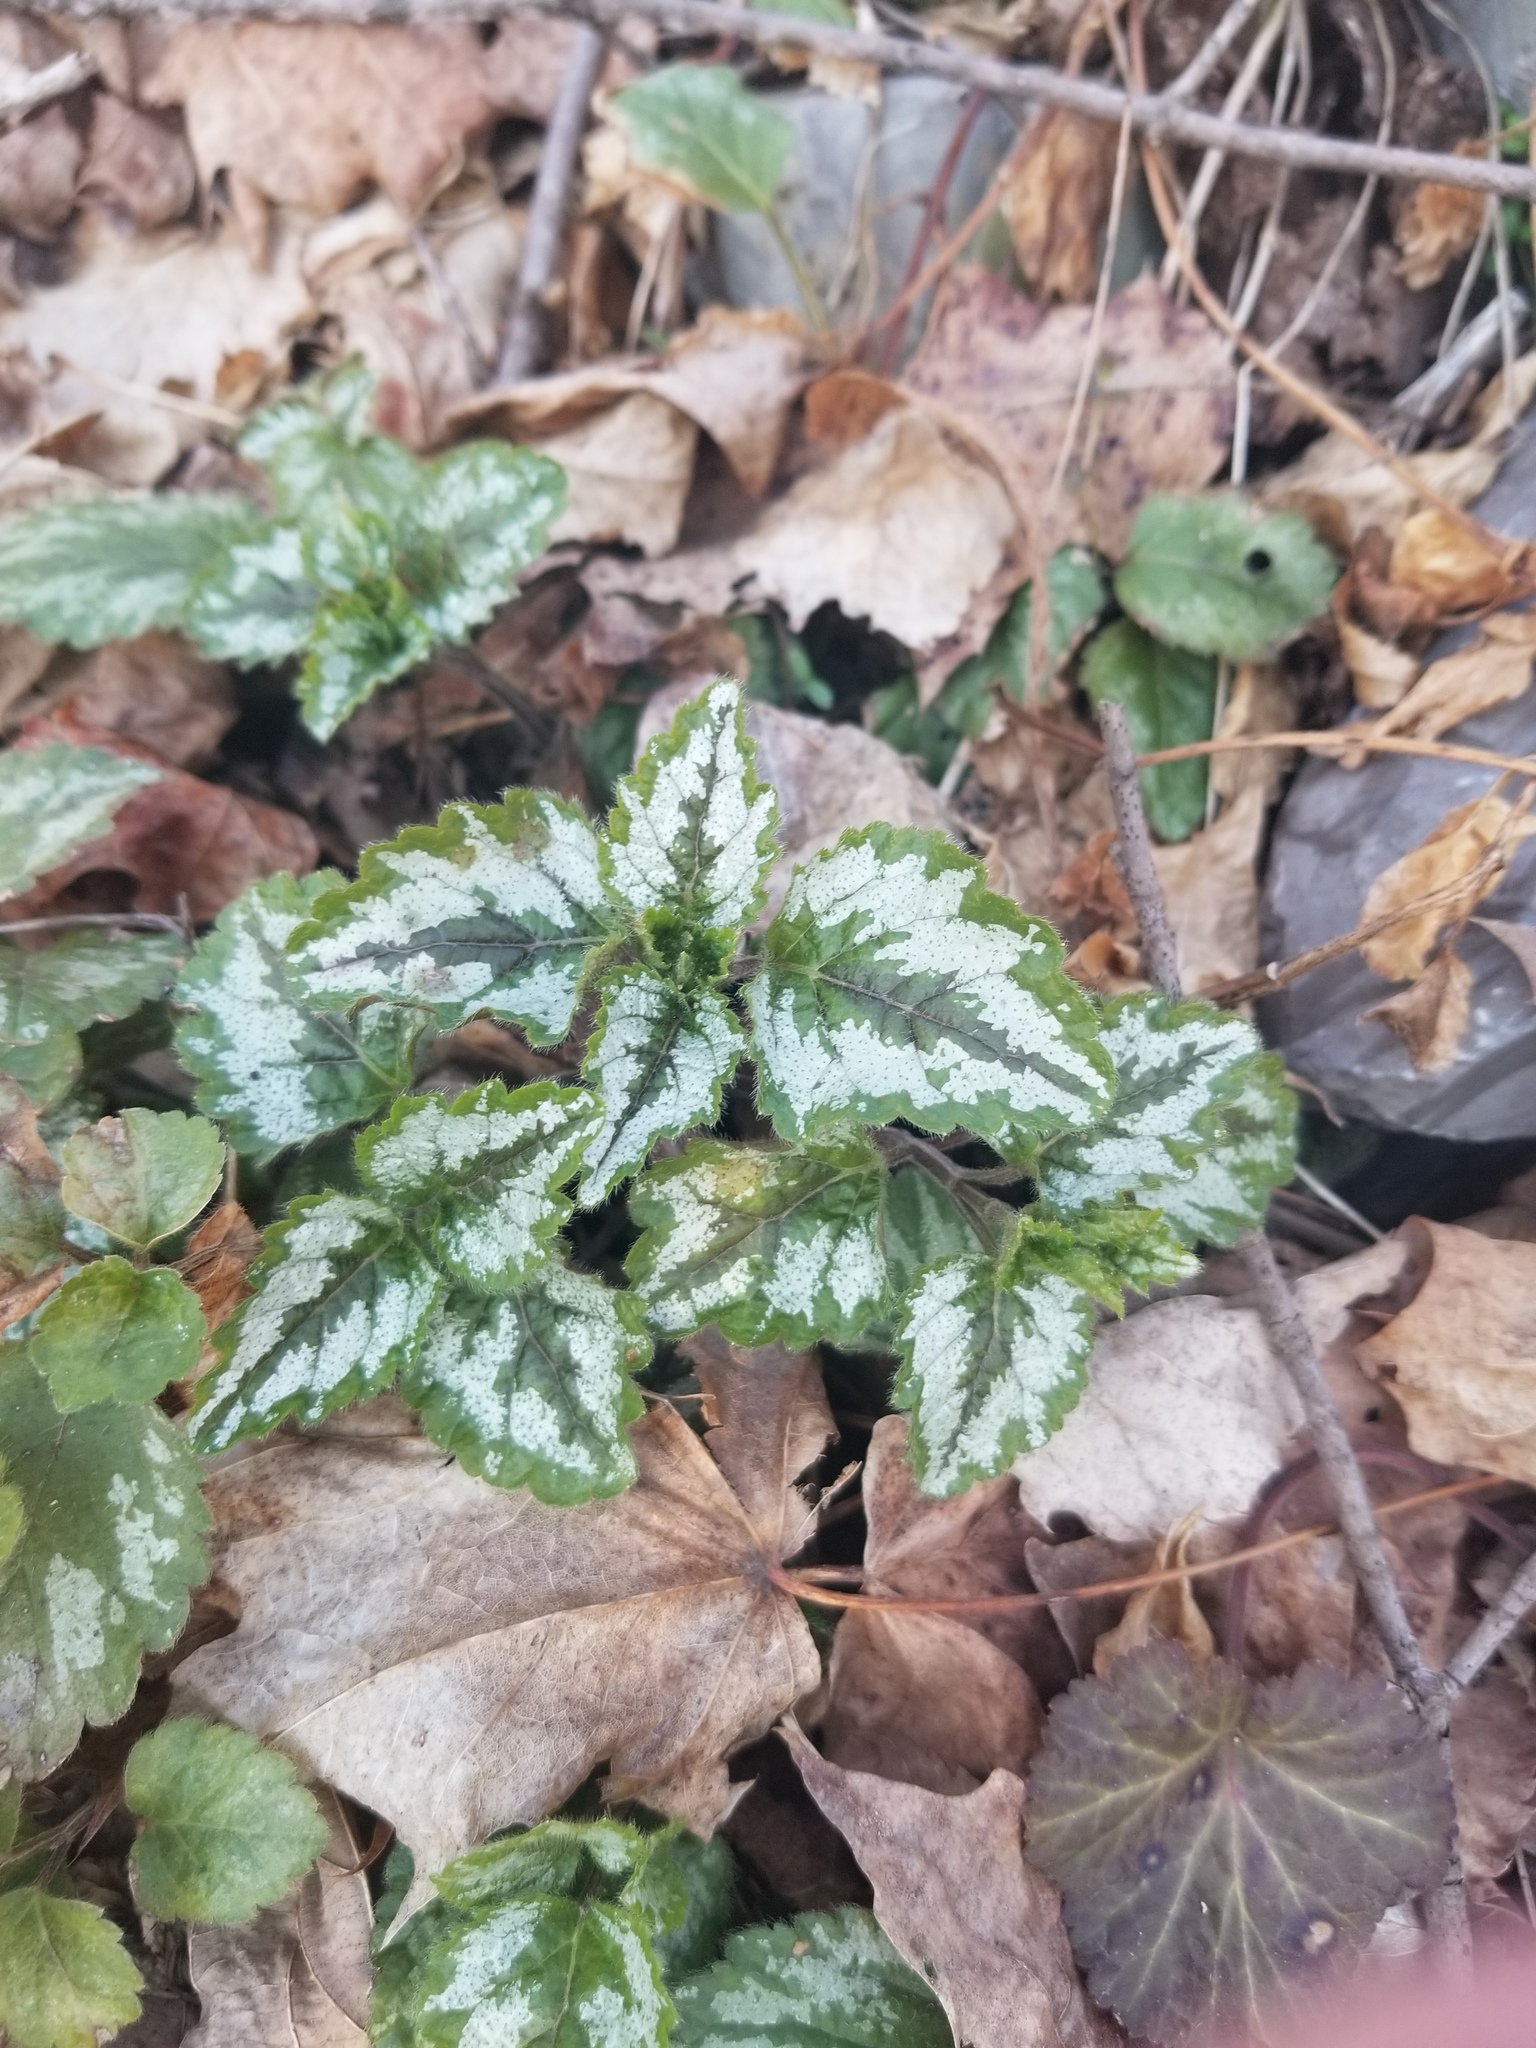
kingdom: Plantae
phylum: Tracheophyta
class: Magnoliopsida
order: Lamiales
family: Lamiaceae
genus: Lamium
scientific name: Lamium galeobdolon
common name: Yellow archangel
